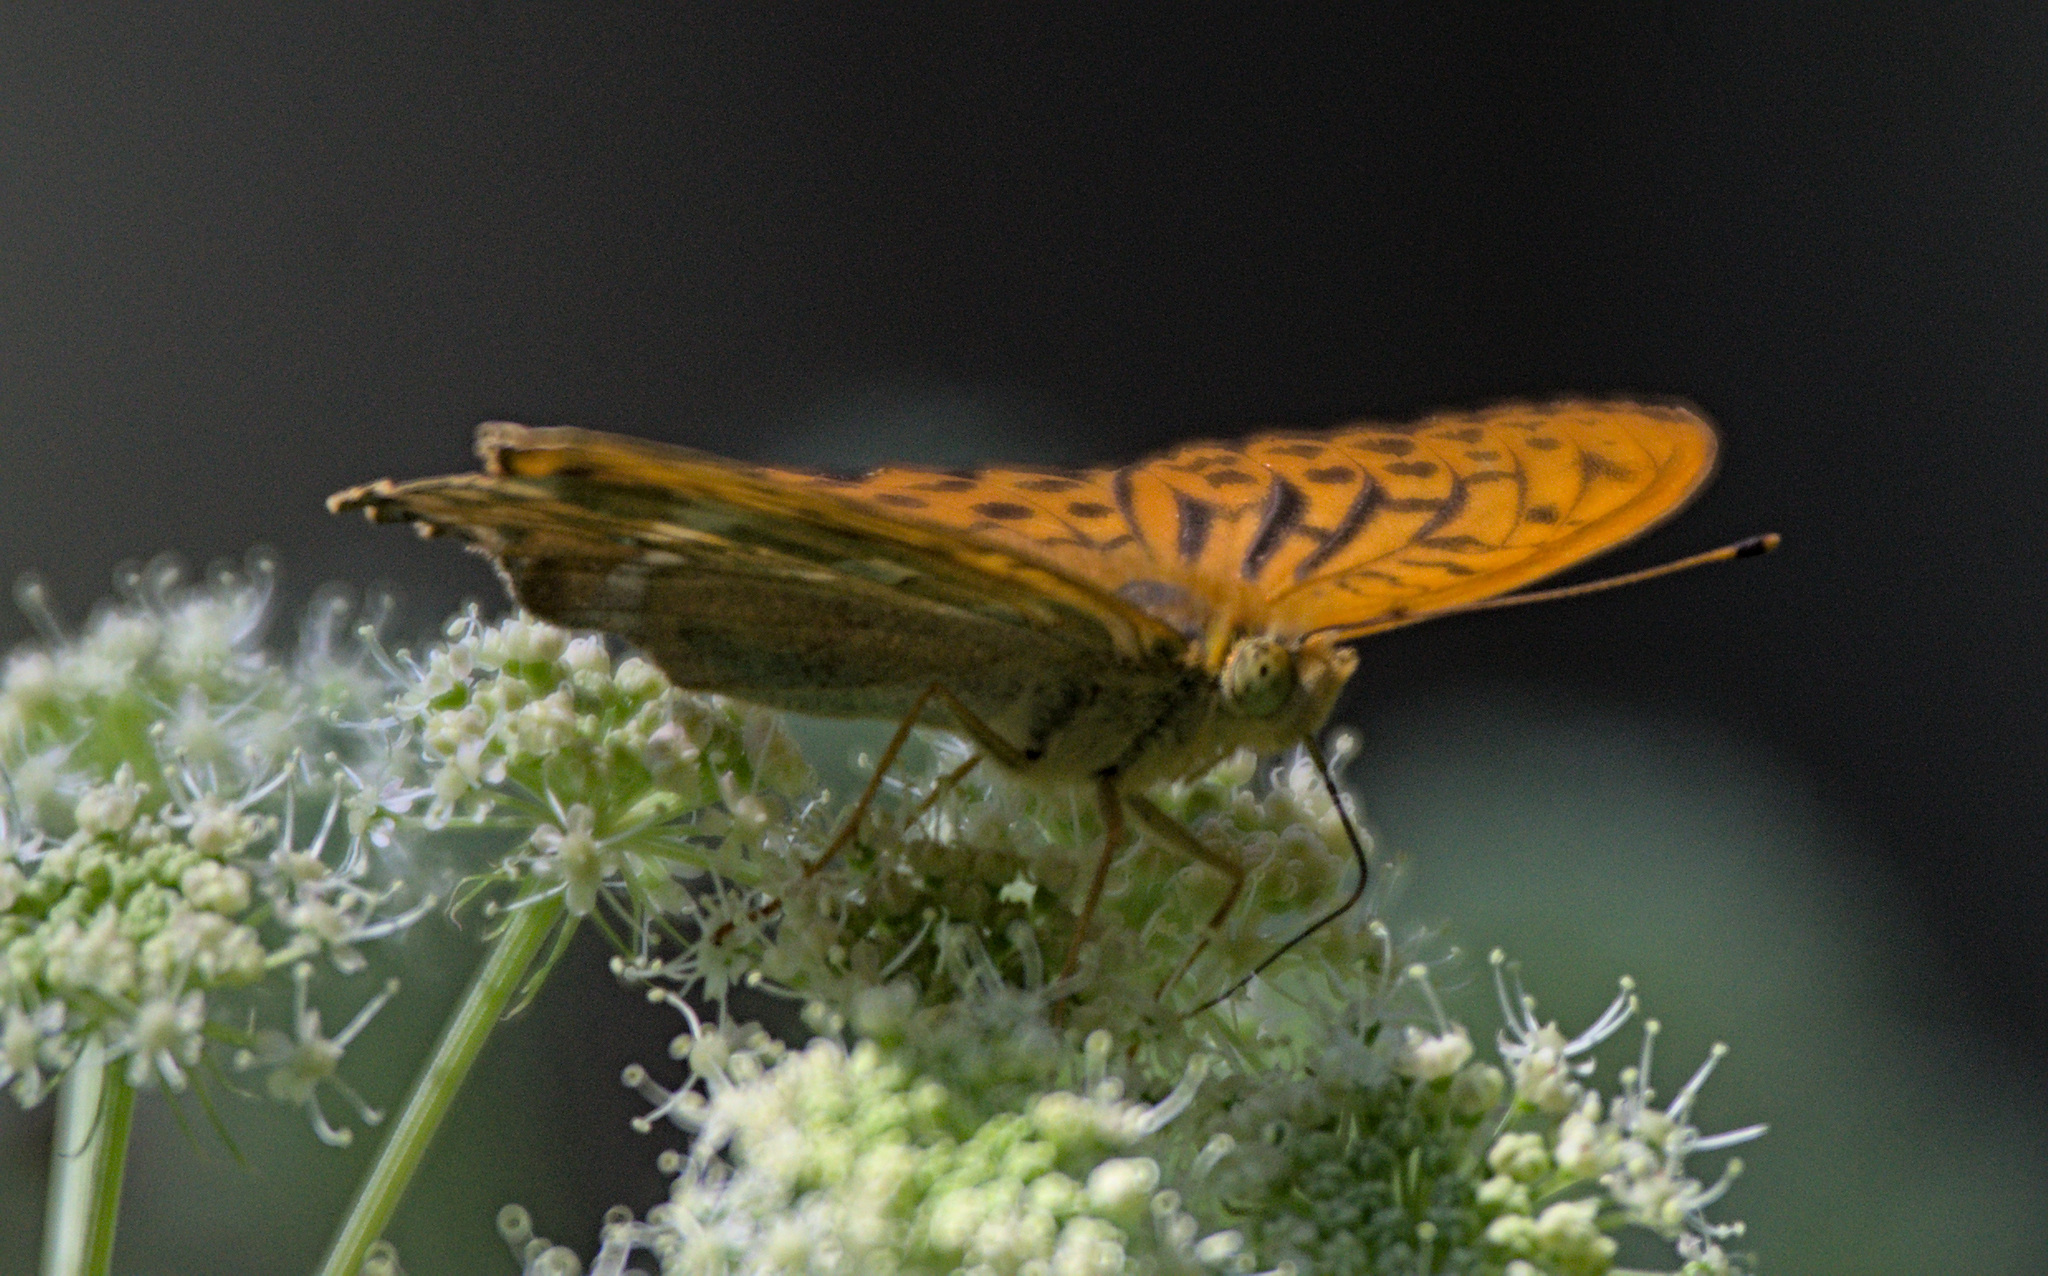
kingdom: Animalia
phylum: Arthropoda
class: Insecta
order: Lepidoptera
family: Nymphalidae
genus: Argynnis
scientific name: Argynnis paphia
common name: Silver-washed fritillary
